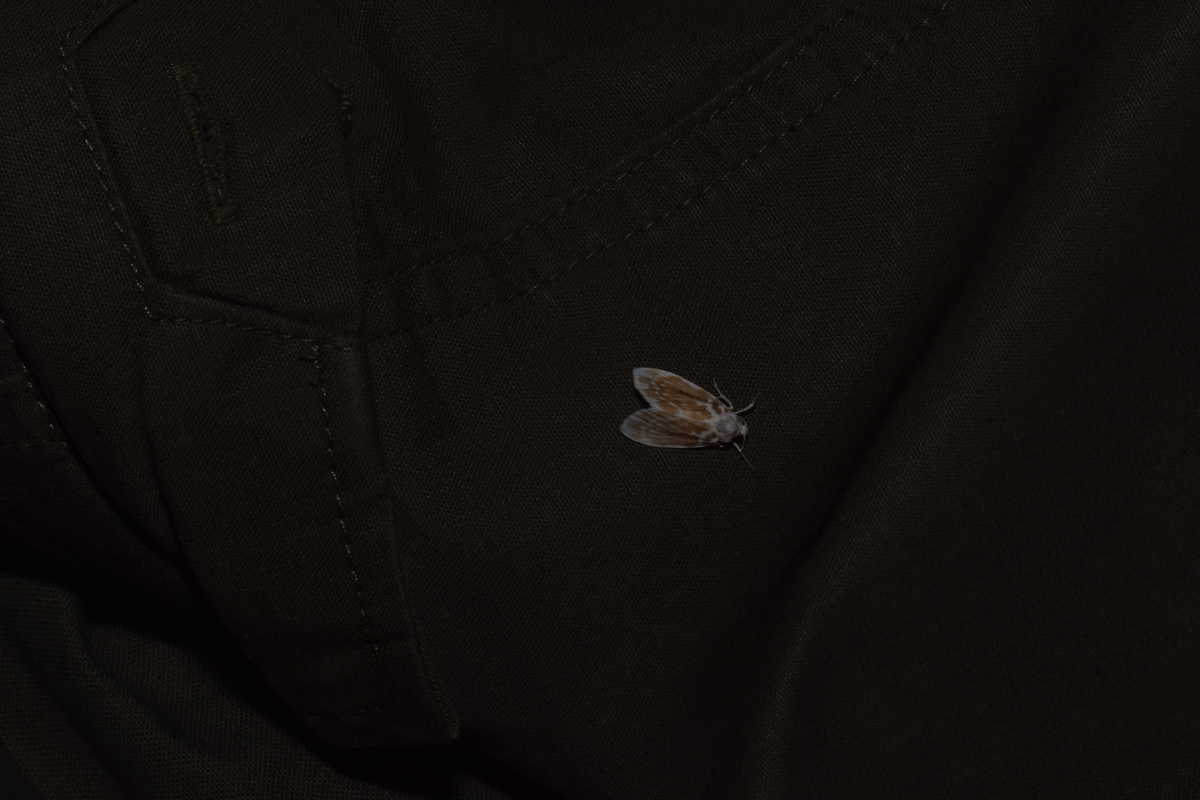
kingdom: Animalia
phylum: Arthropoda
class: Insecta
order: Lepidoptera
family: Erebidae
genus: Adites
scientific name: Adites paraimpilia
